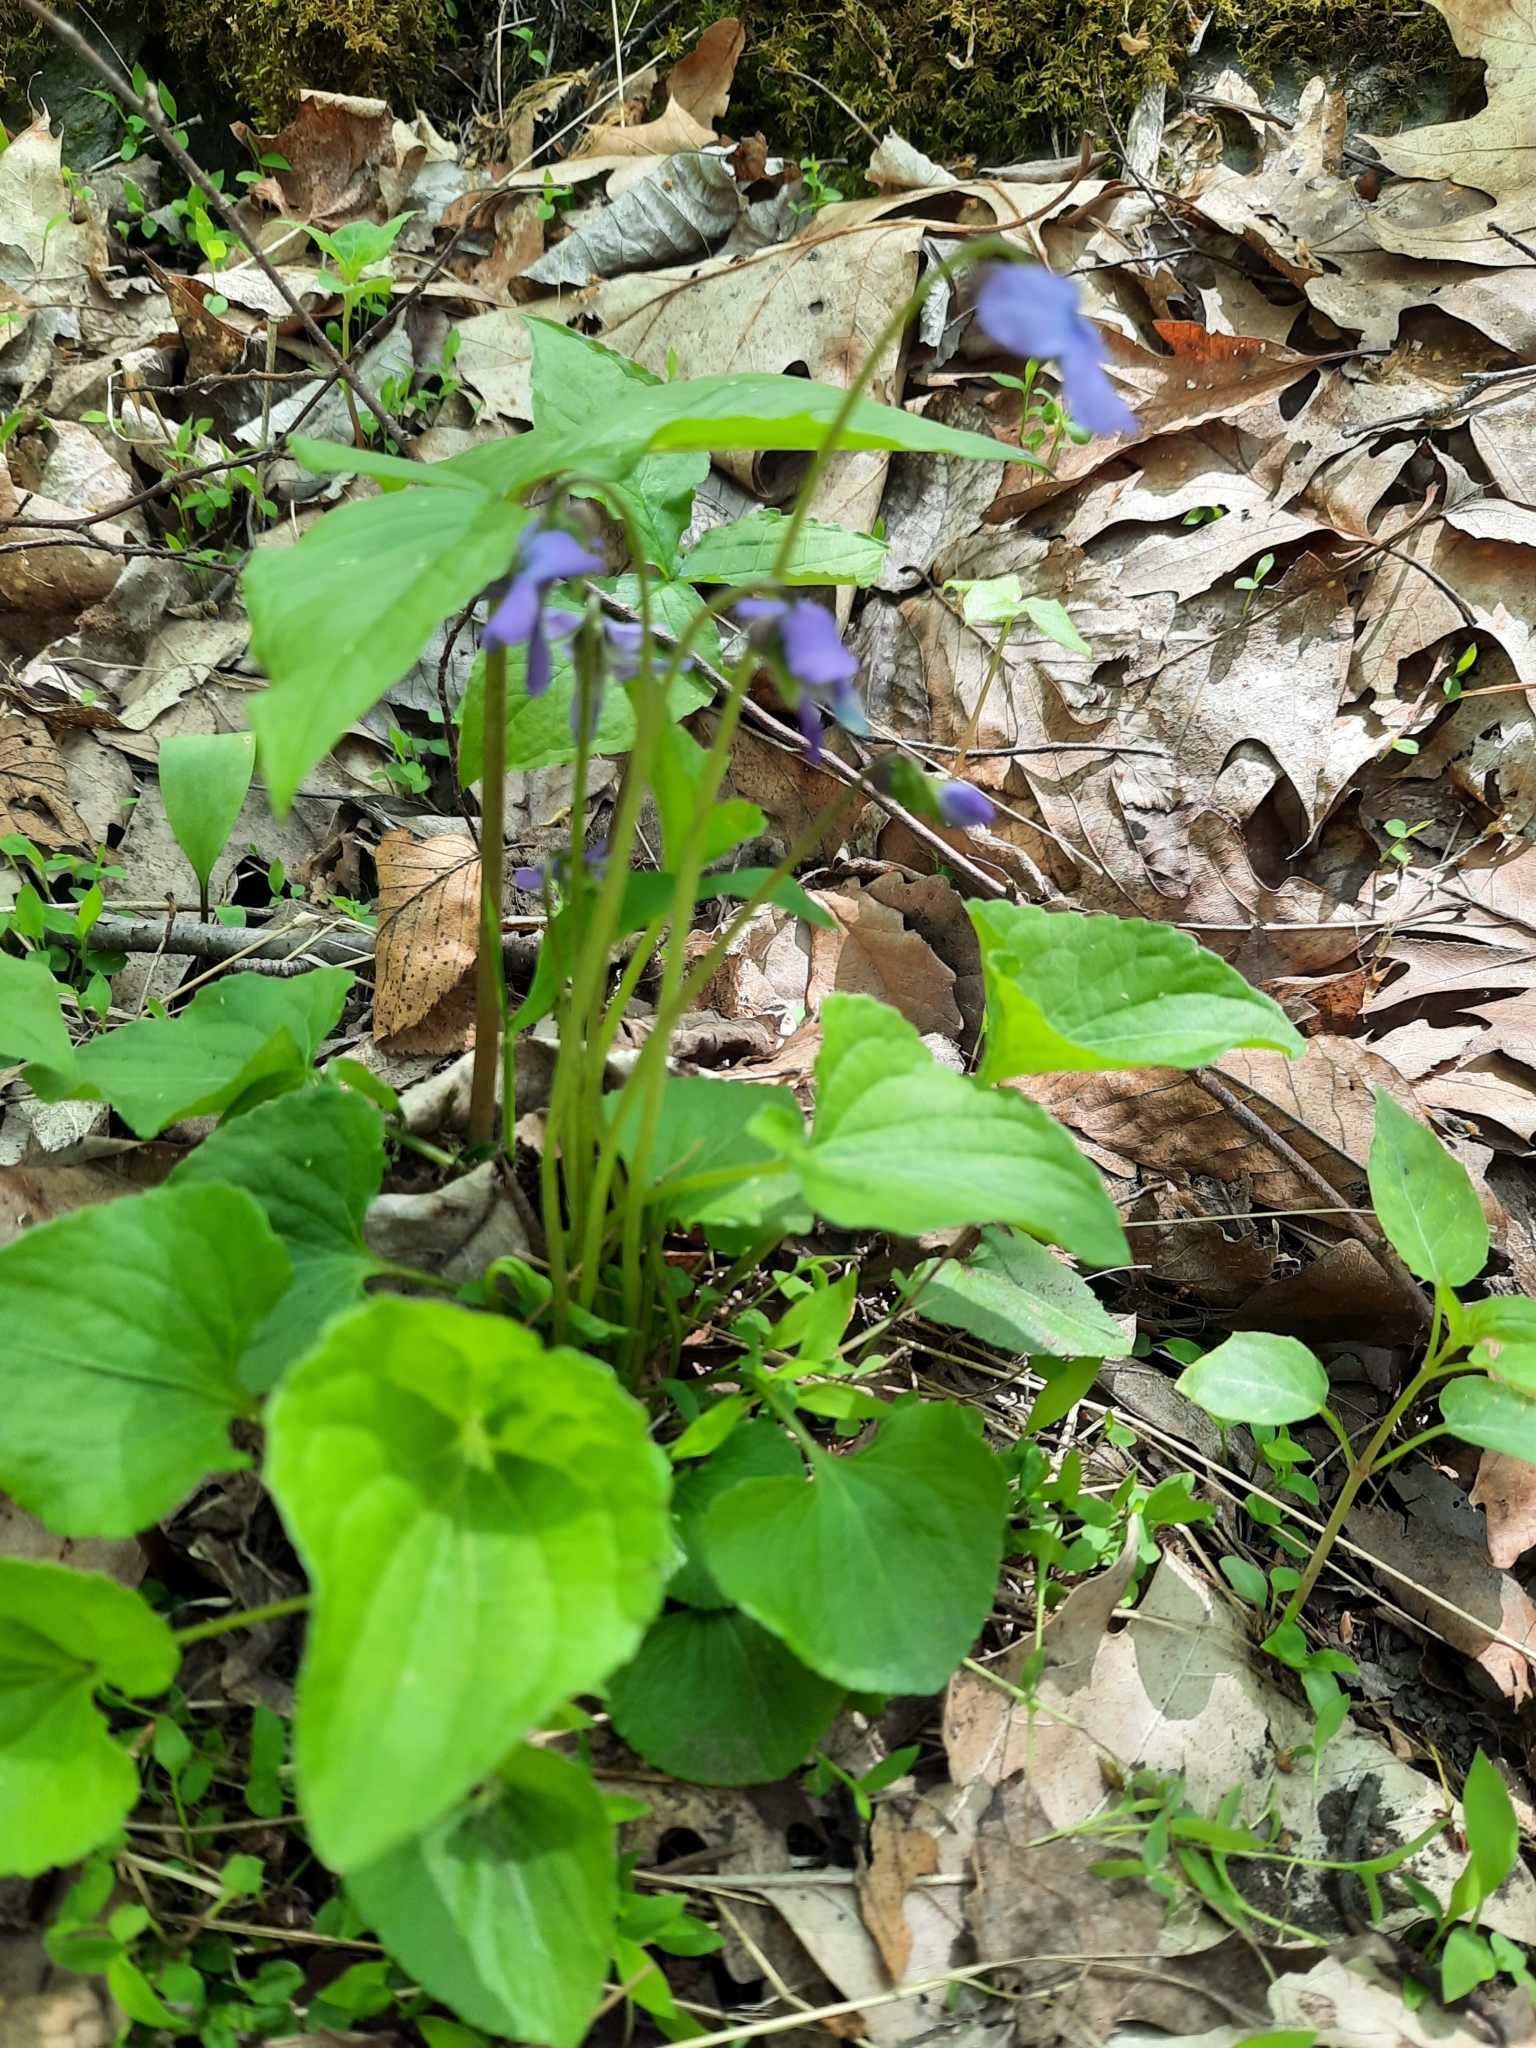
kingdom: Plantae
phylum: Tracheophyta
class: Magnoliopsida
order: Malpighiales
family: Violaceae
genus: Viola
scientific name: Viola cucullata
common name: Marsh blue violet
